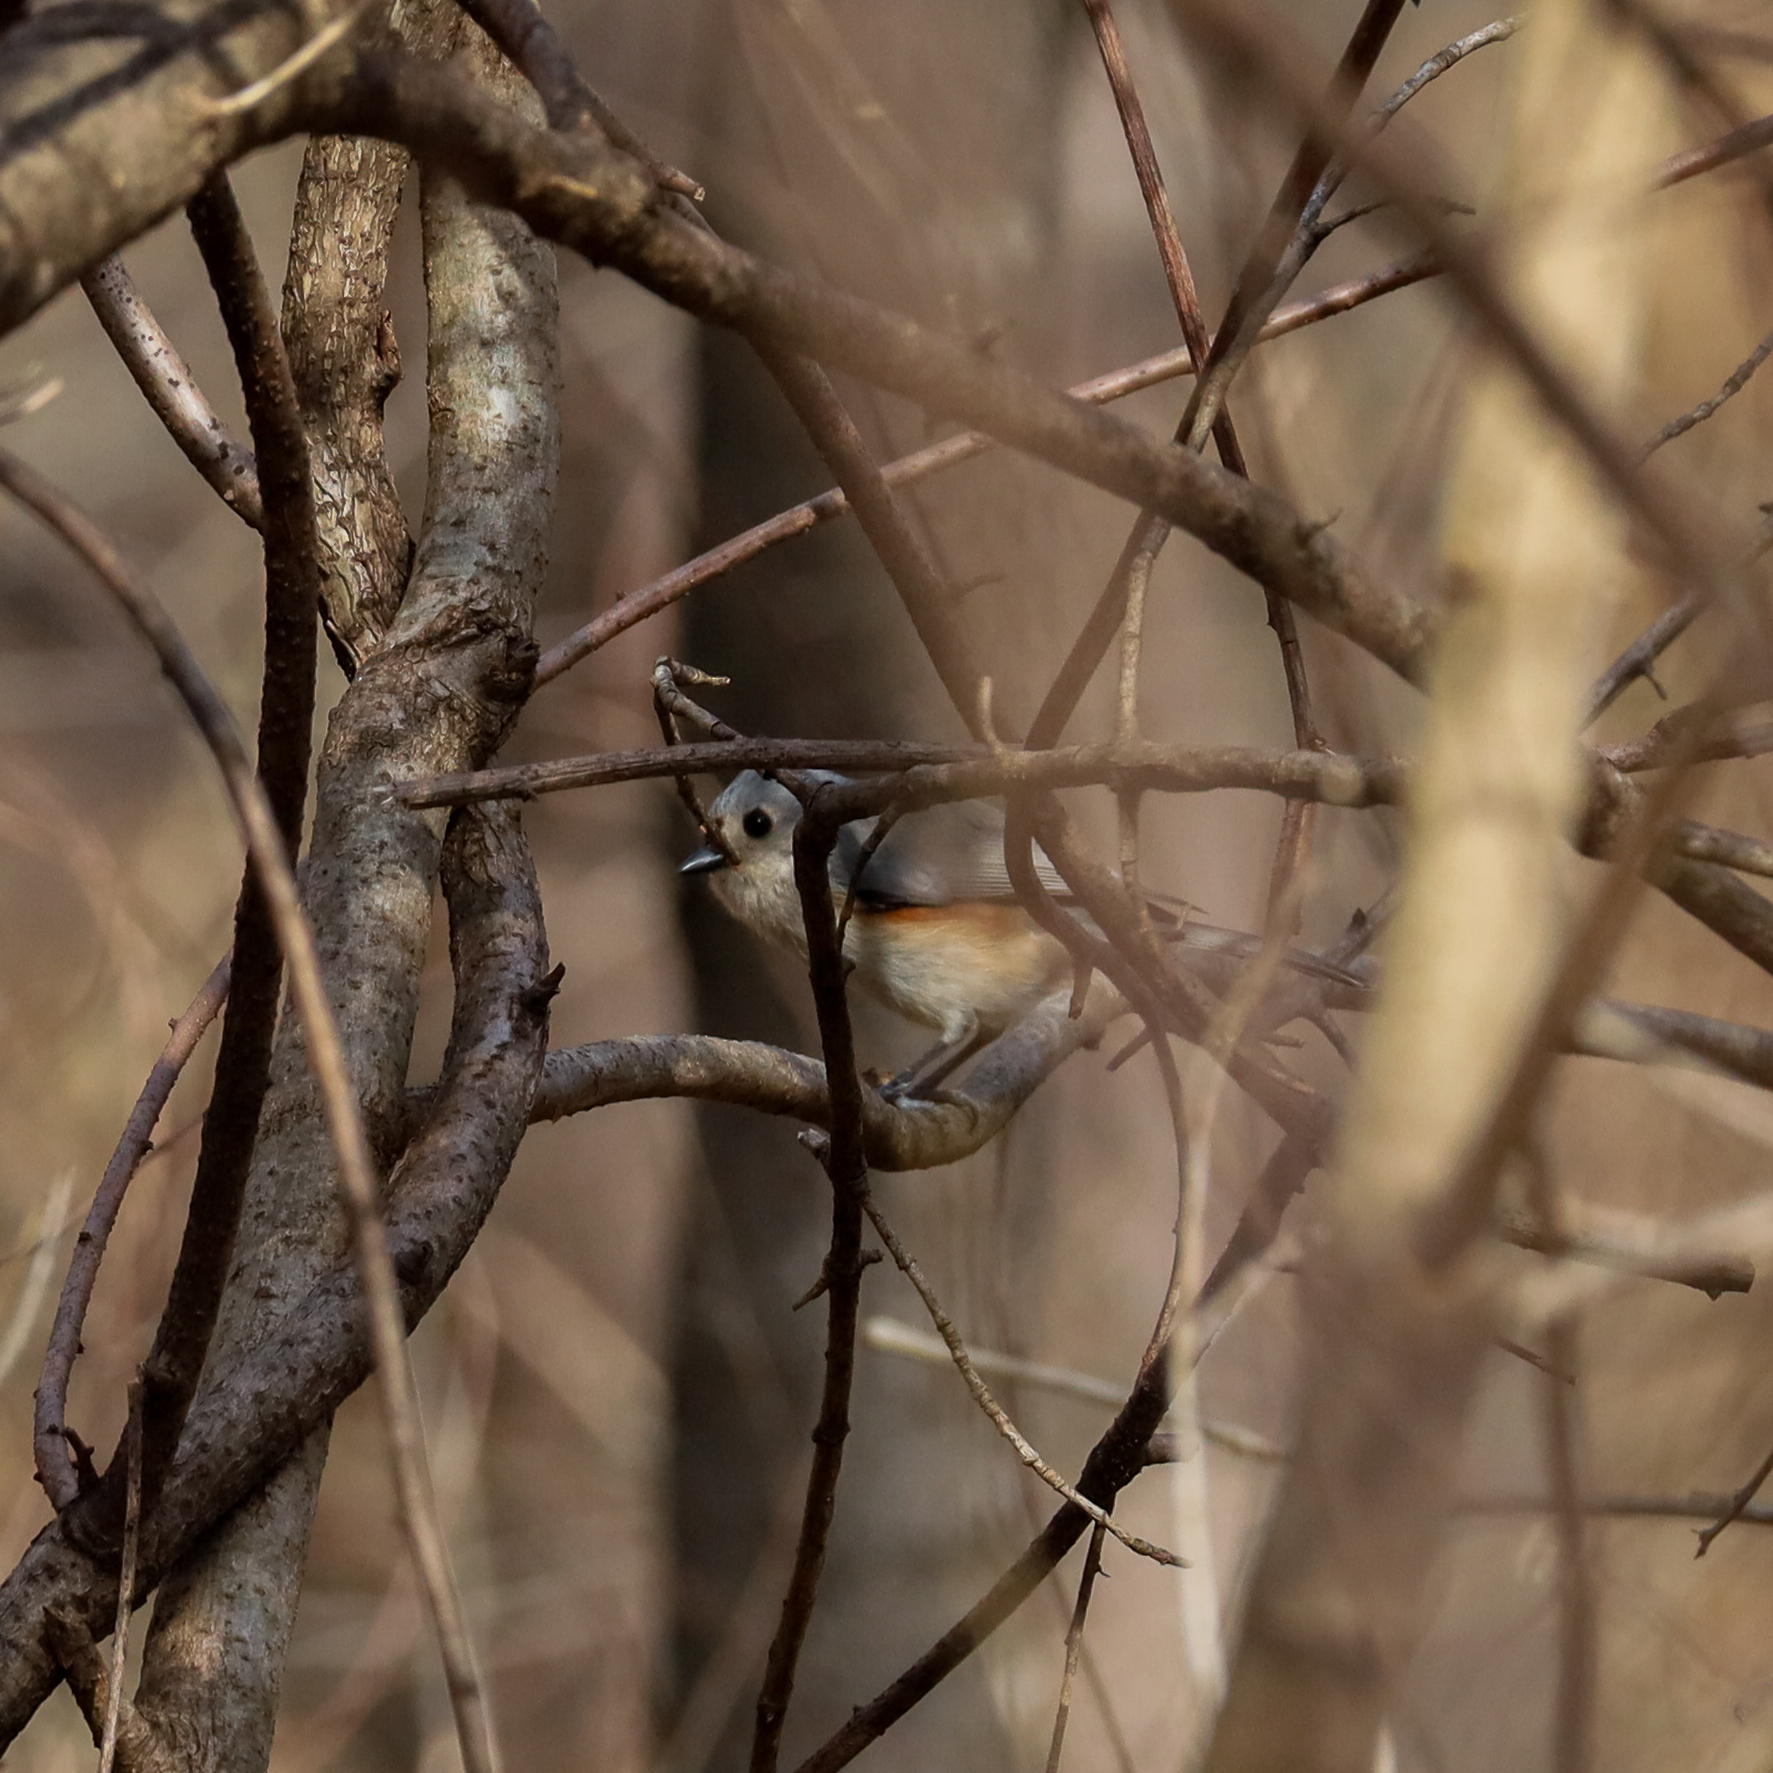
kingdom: Animalia
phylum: Chordata
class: Aves
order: Passeriformes
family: Paridae
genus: Baeolophus
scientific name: Baeolophus bicolor
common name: Tufted titmouse
